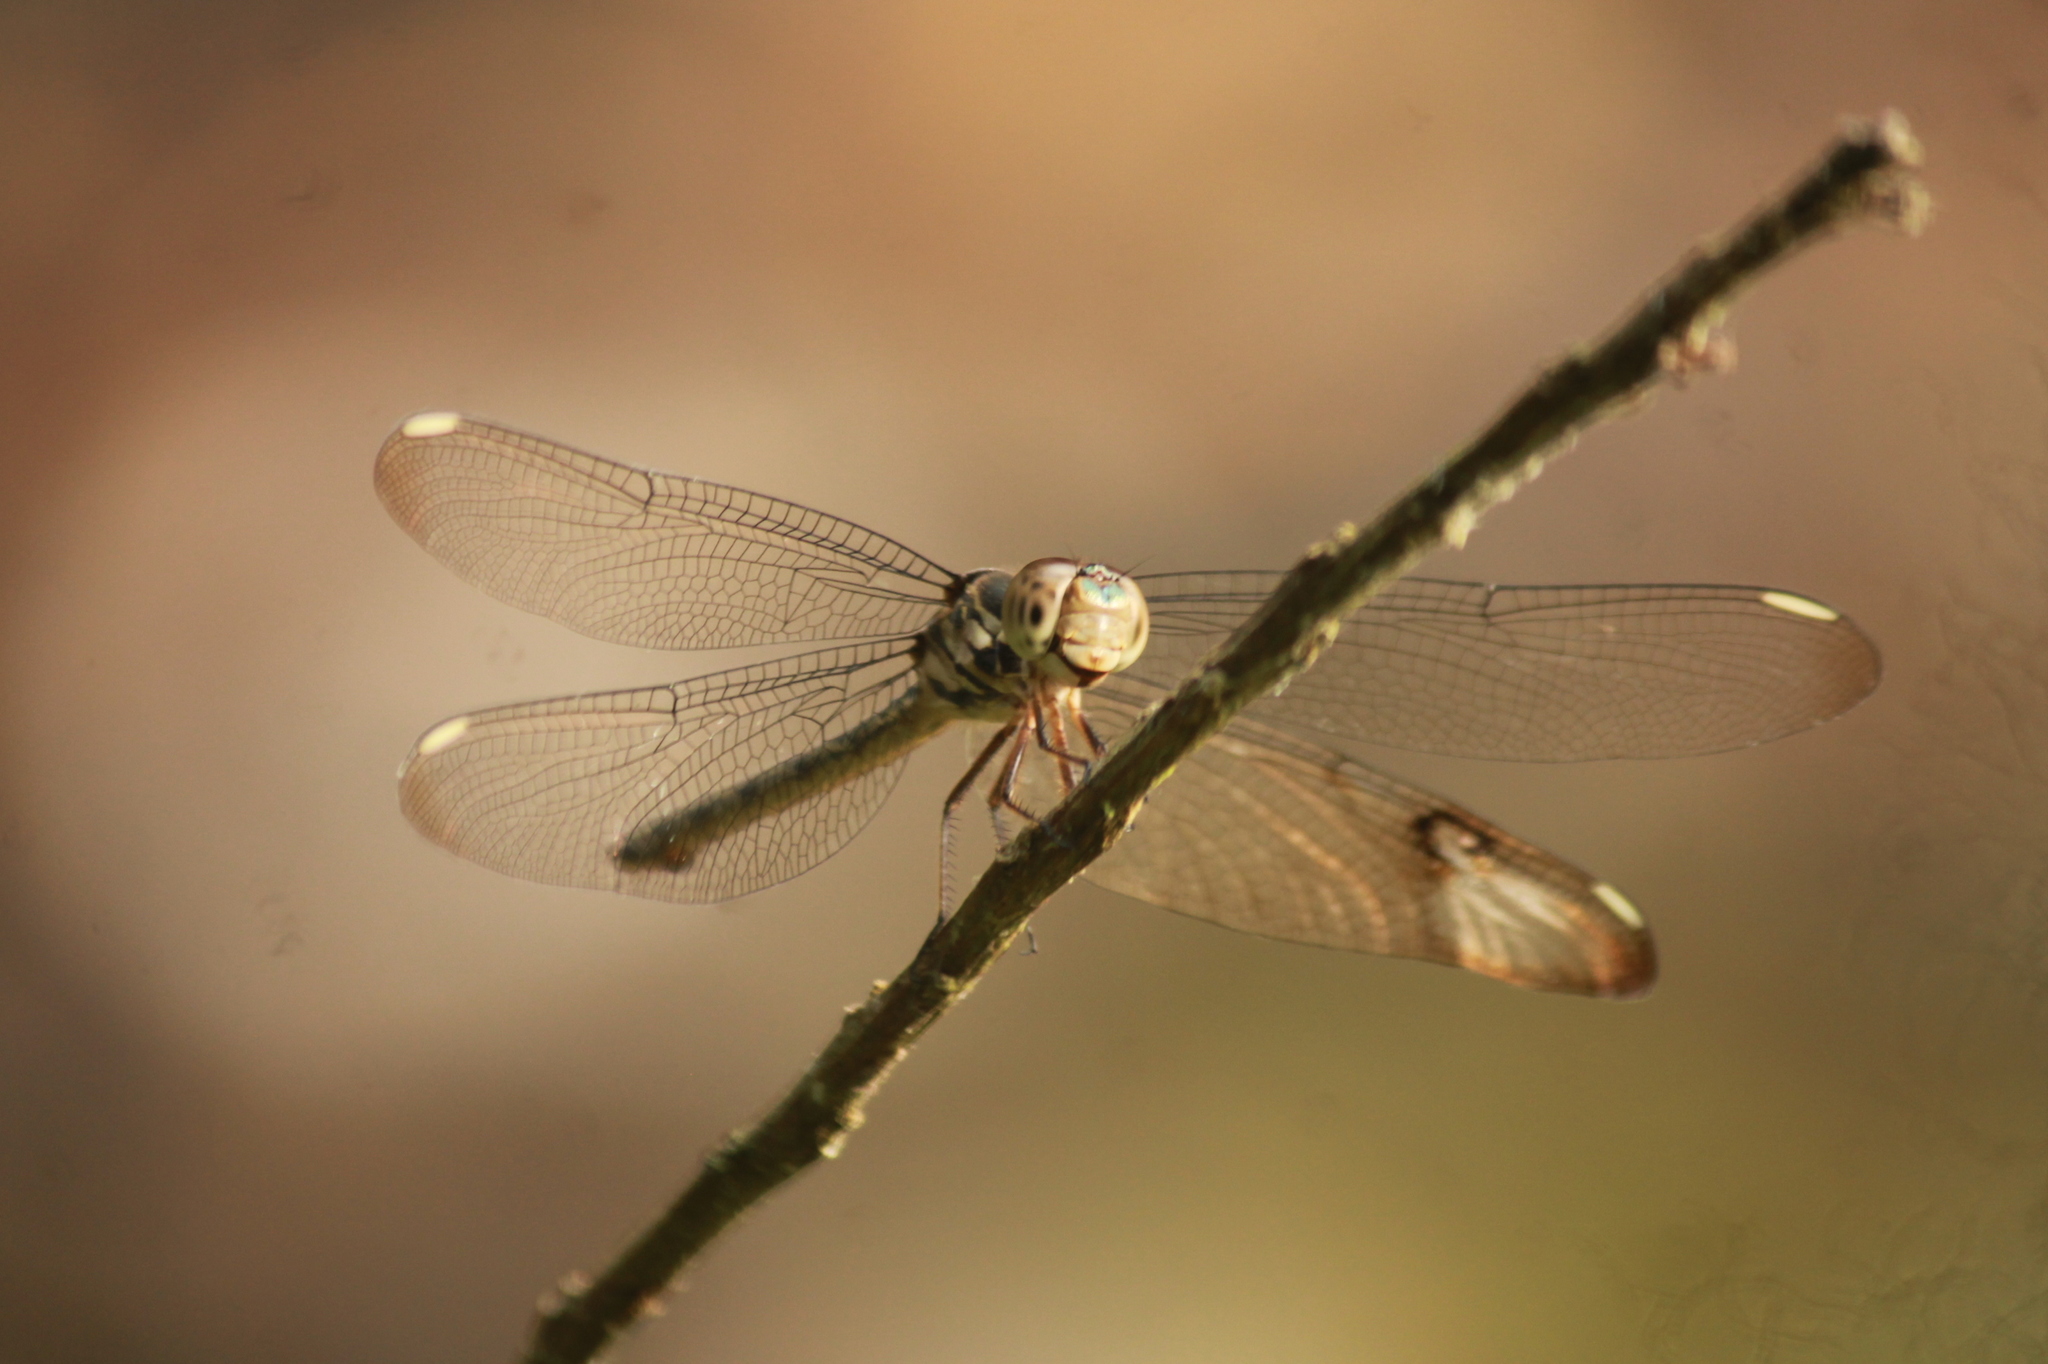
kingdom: Animalia
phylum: Arthropoda
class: Insecta
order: Odonata
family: Libellulidae
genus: Cratilla
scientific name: Cratilla lineata
